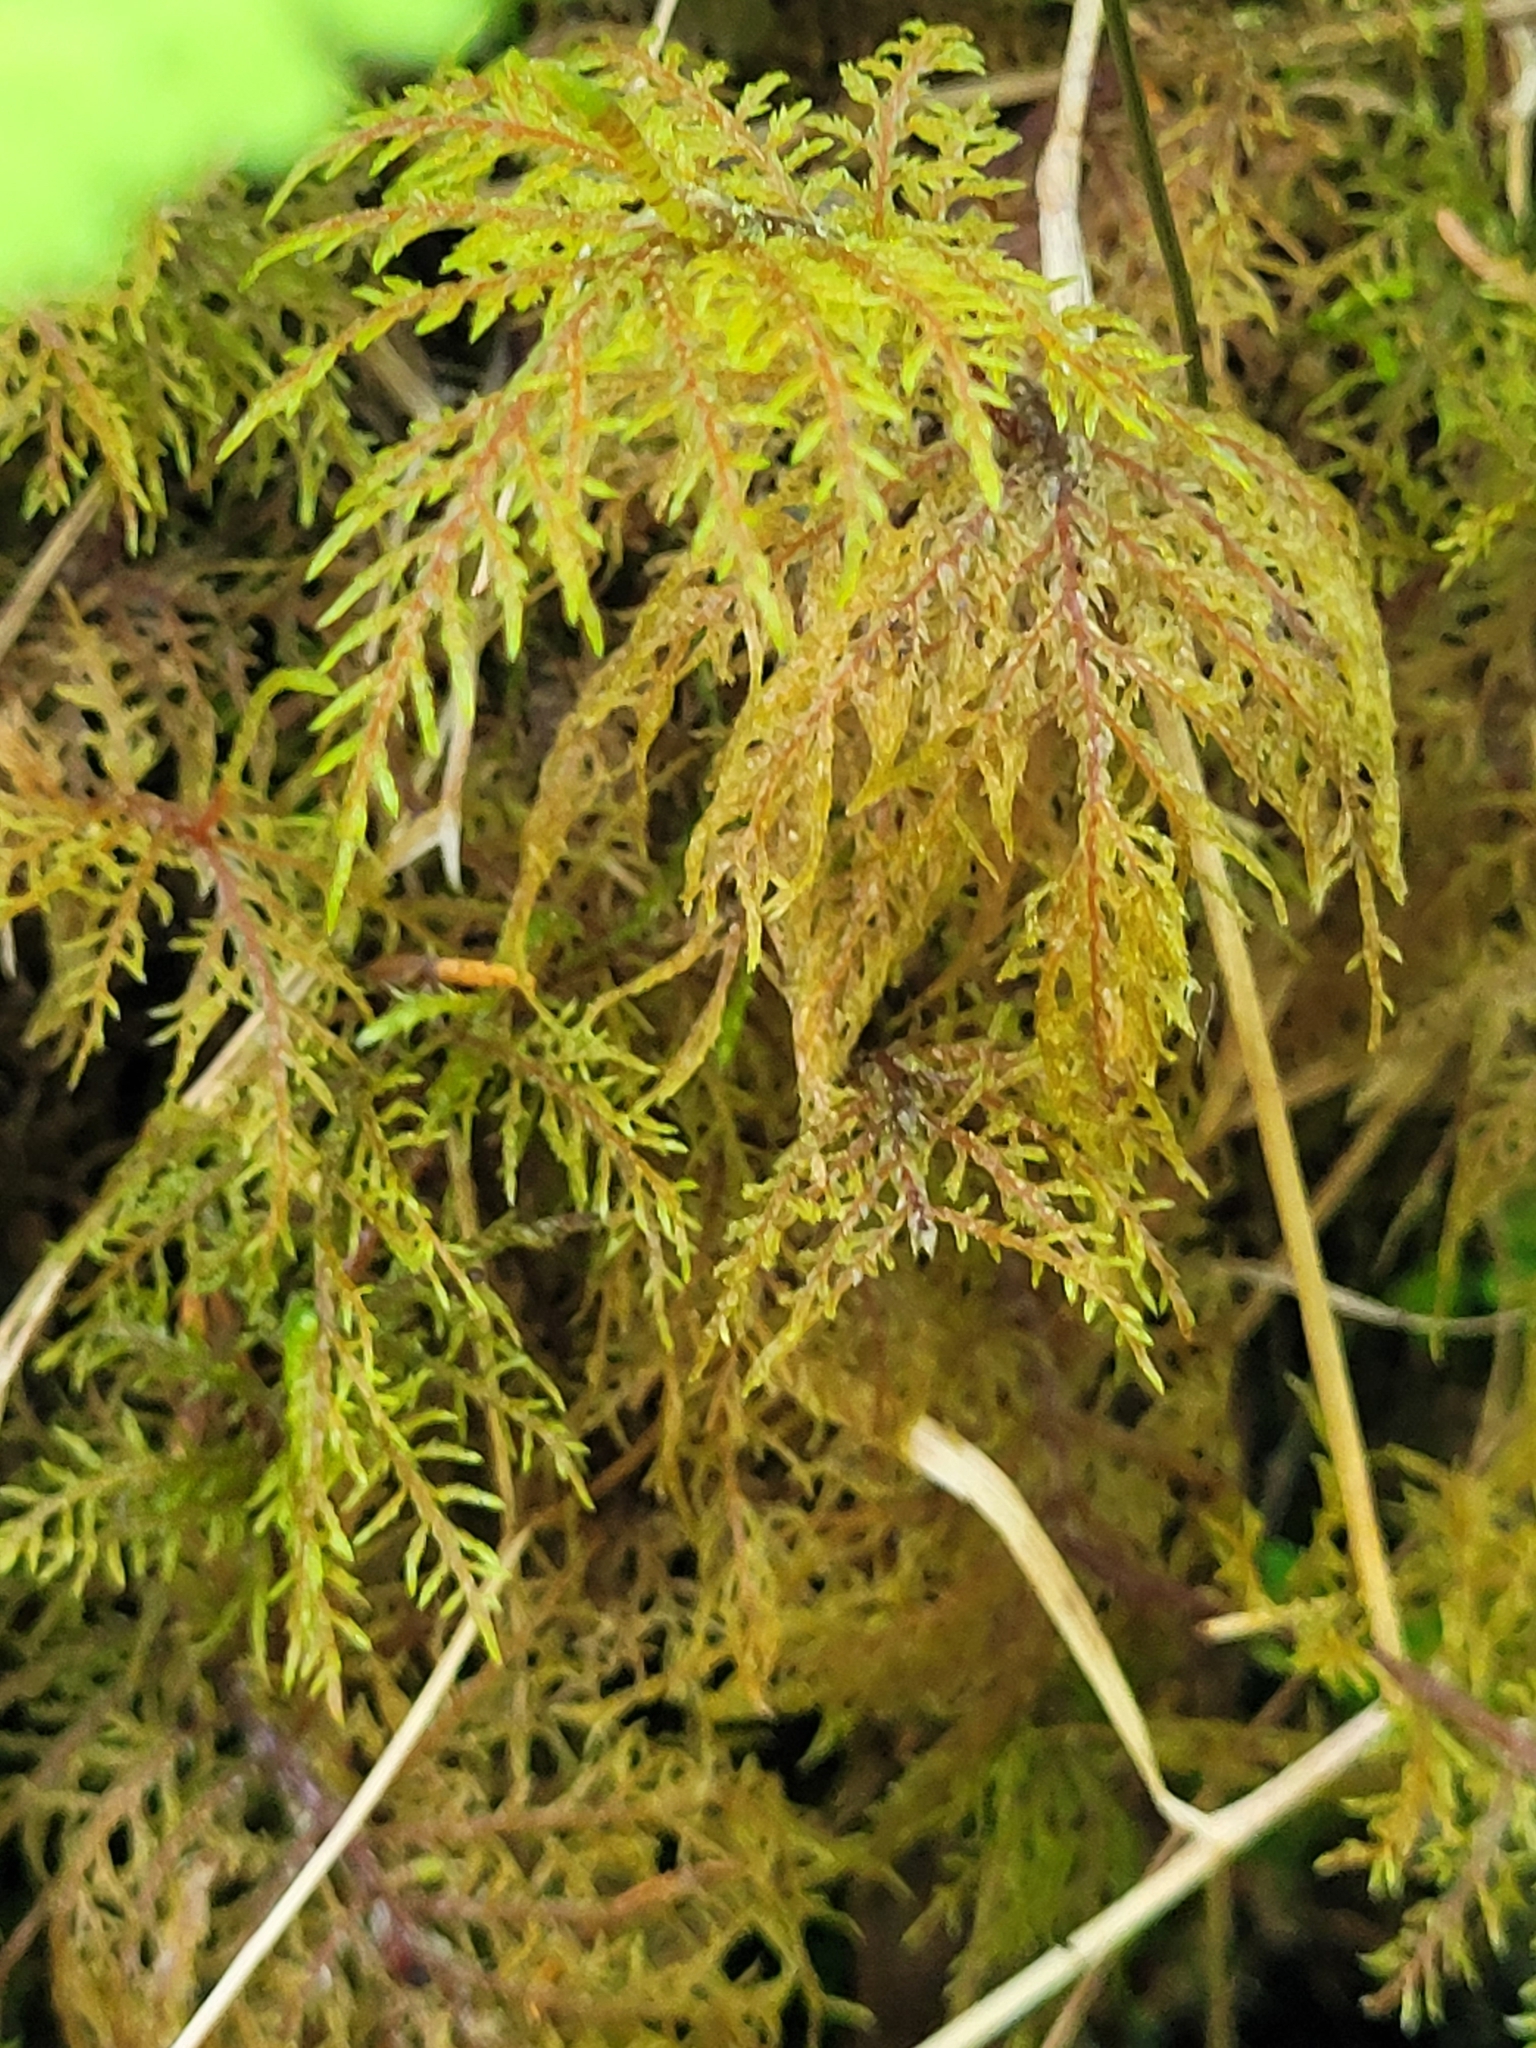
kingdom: Plantae
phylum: Bryophyta
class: Bryopsida
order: Hypnales
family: Hylocomiaceae
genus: Hylocomium
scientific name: Hylocomium splendens
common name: Stairstep moss
